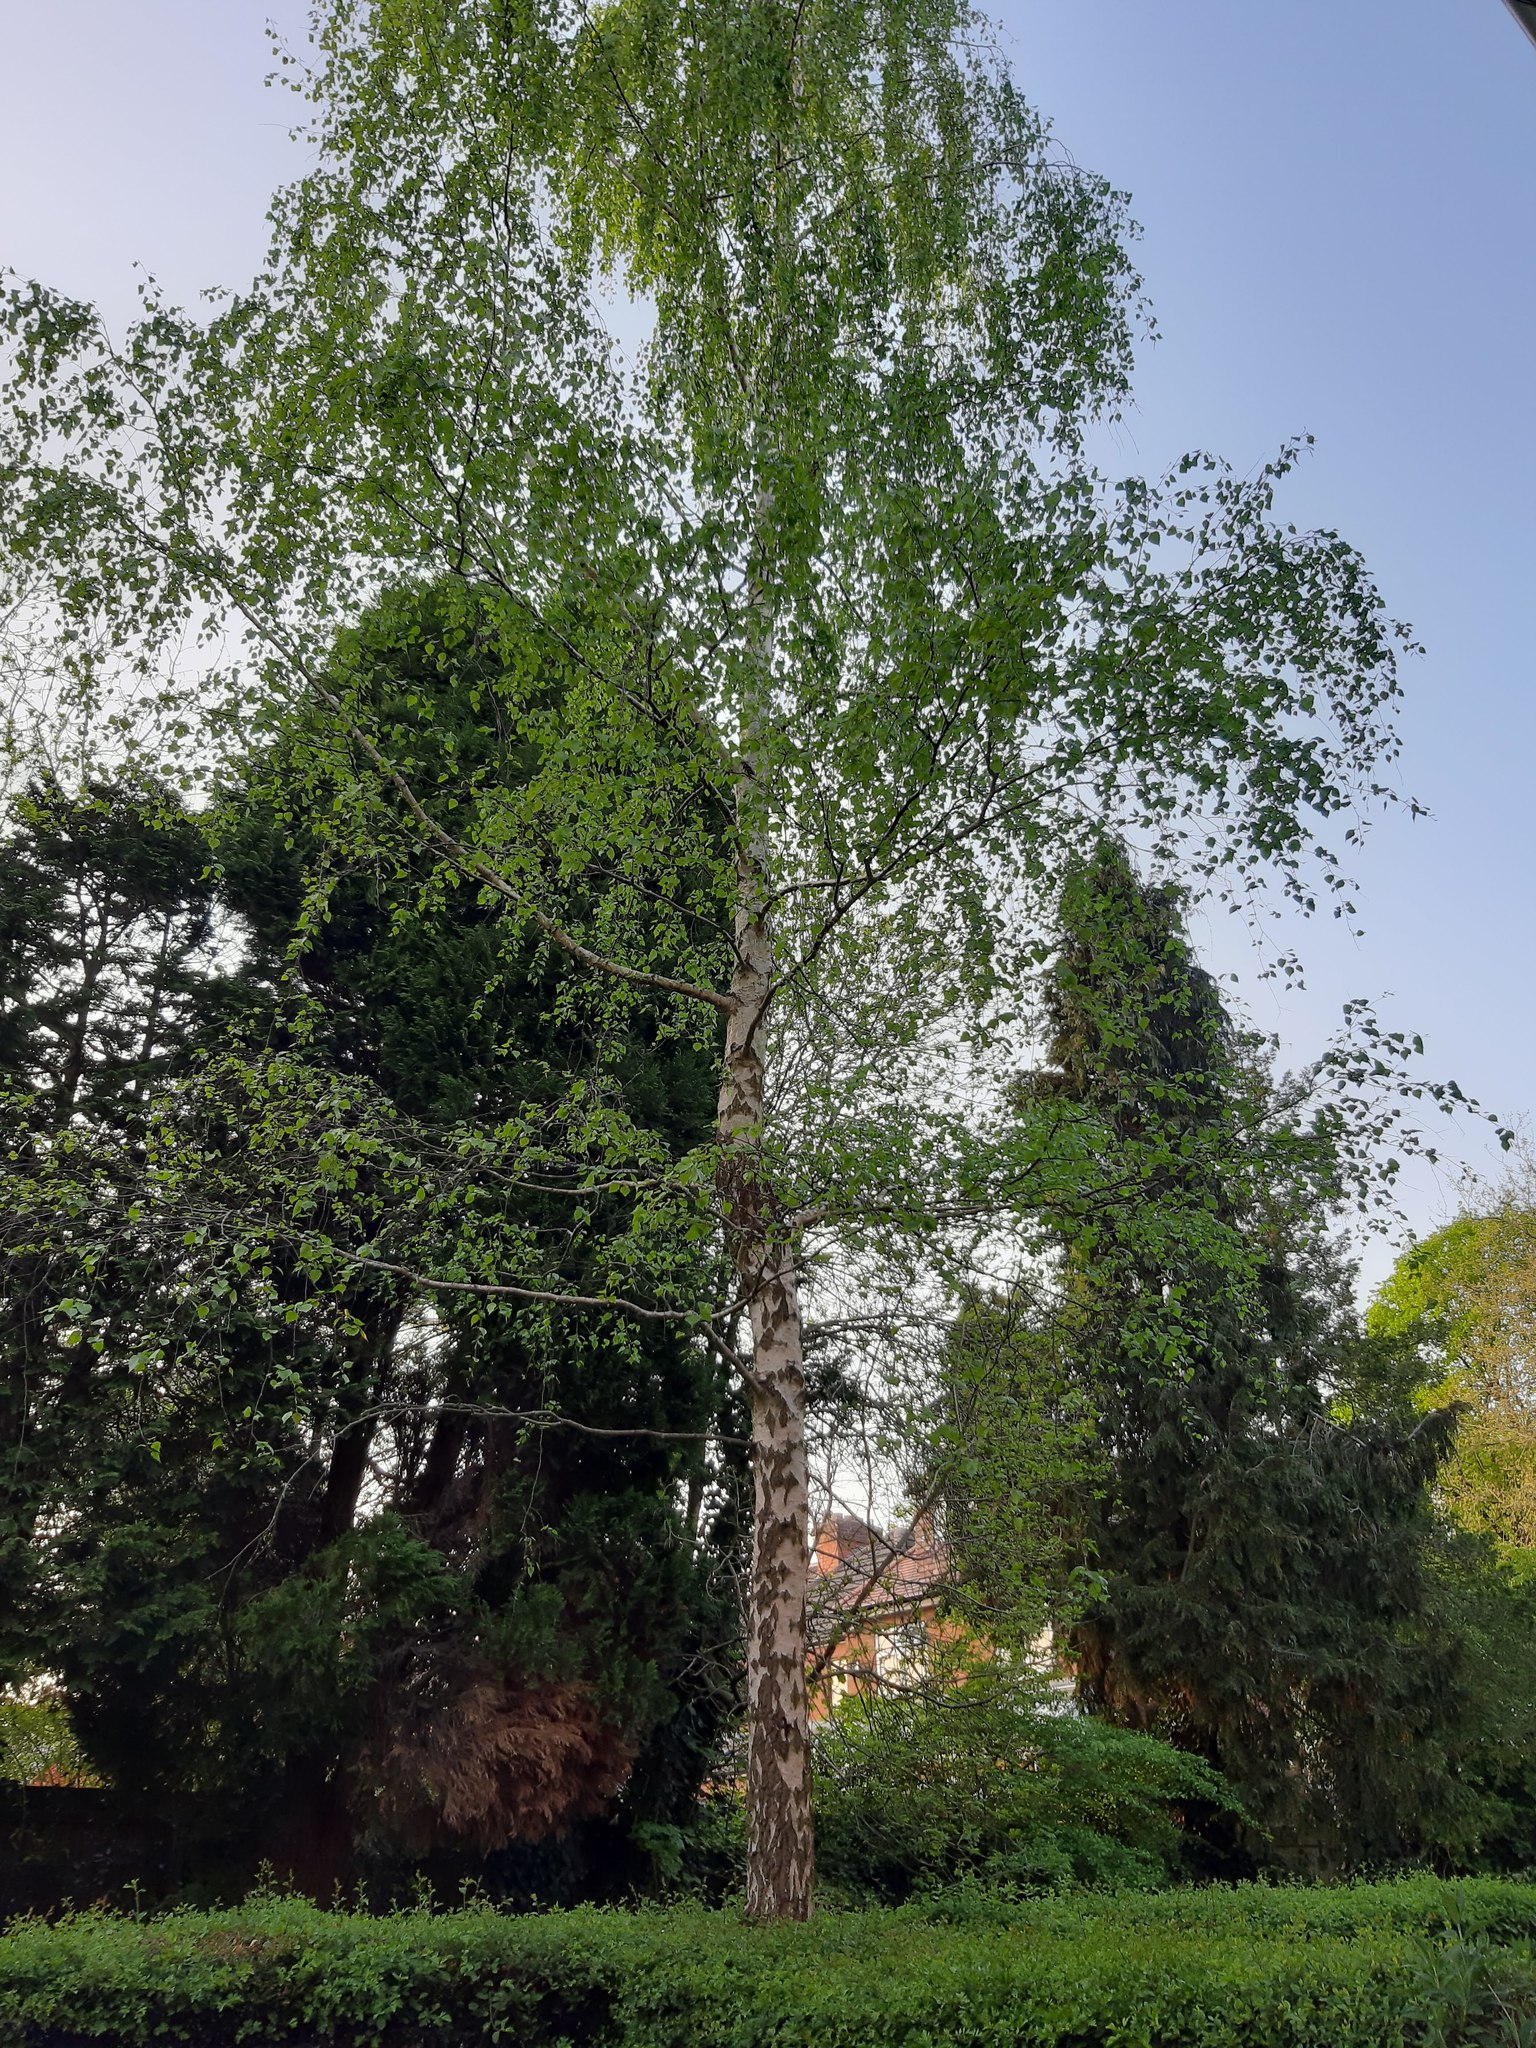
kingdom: Plantae
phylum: Tracheophyta
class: Magnoliopsida
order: Fagales
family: Betulaceae
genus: Betula
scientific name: Betula pendula
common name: Silver birch
